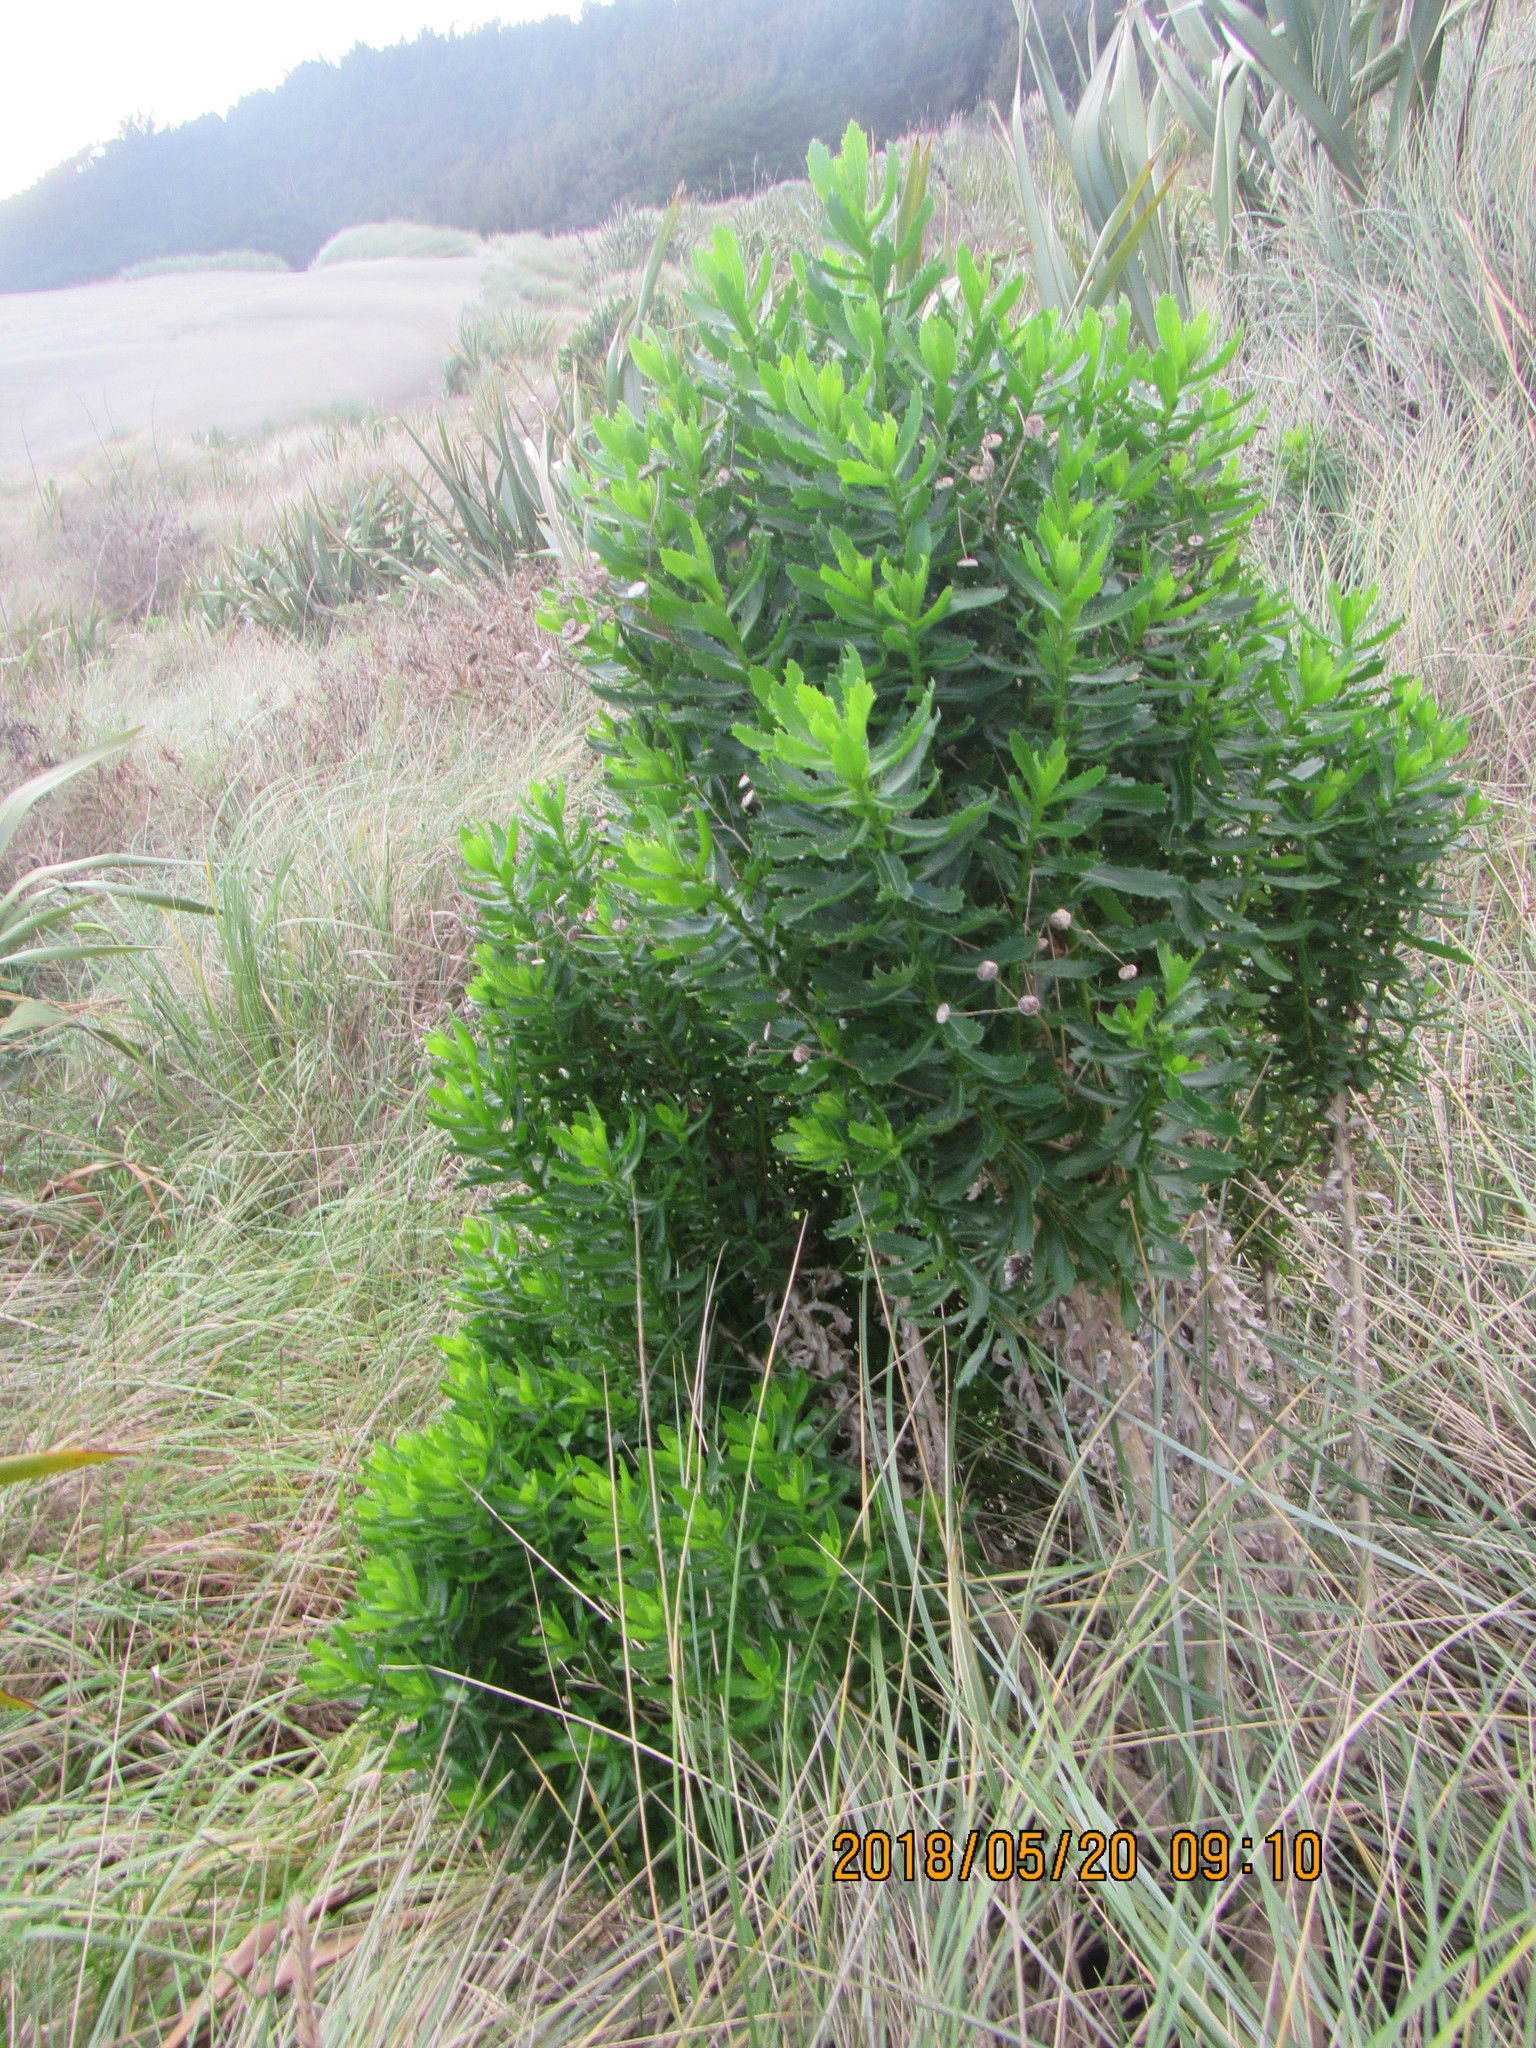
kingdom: Plantae
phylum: Tracheophyta
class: Magnoliopsida
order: Asterales
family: Asteraceae
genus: Senecio
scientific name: Senecio glastifolius
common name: Woad-leaved ragwort
